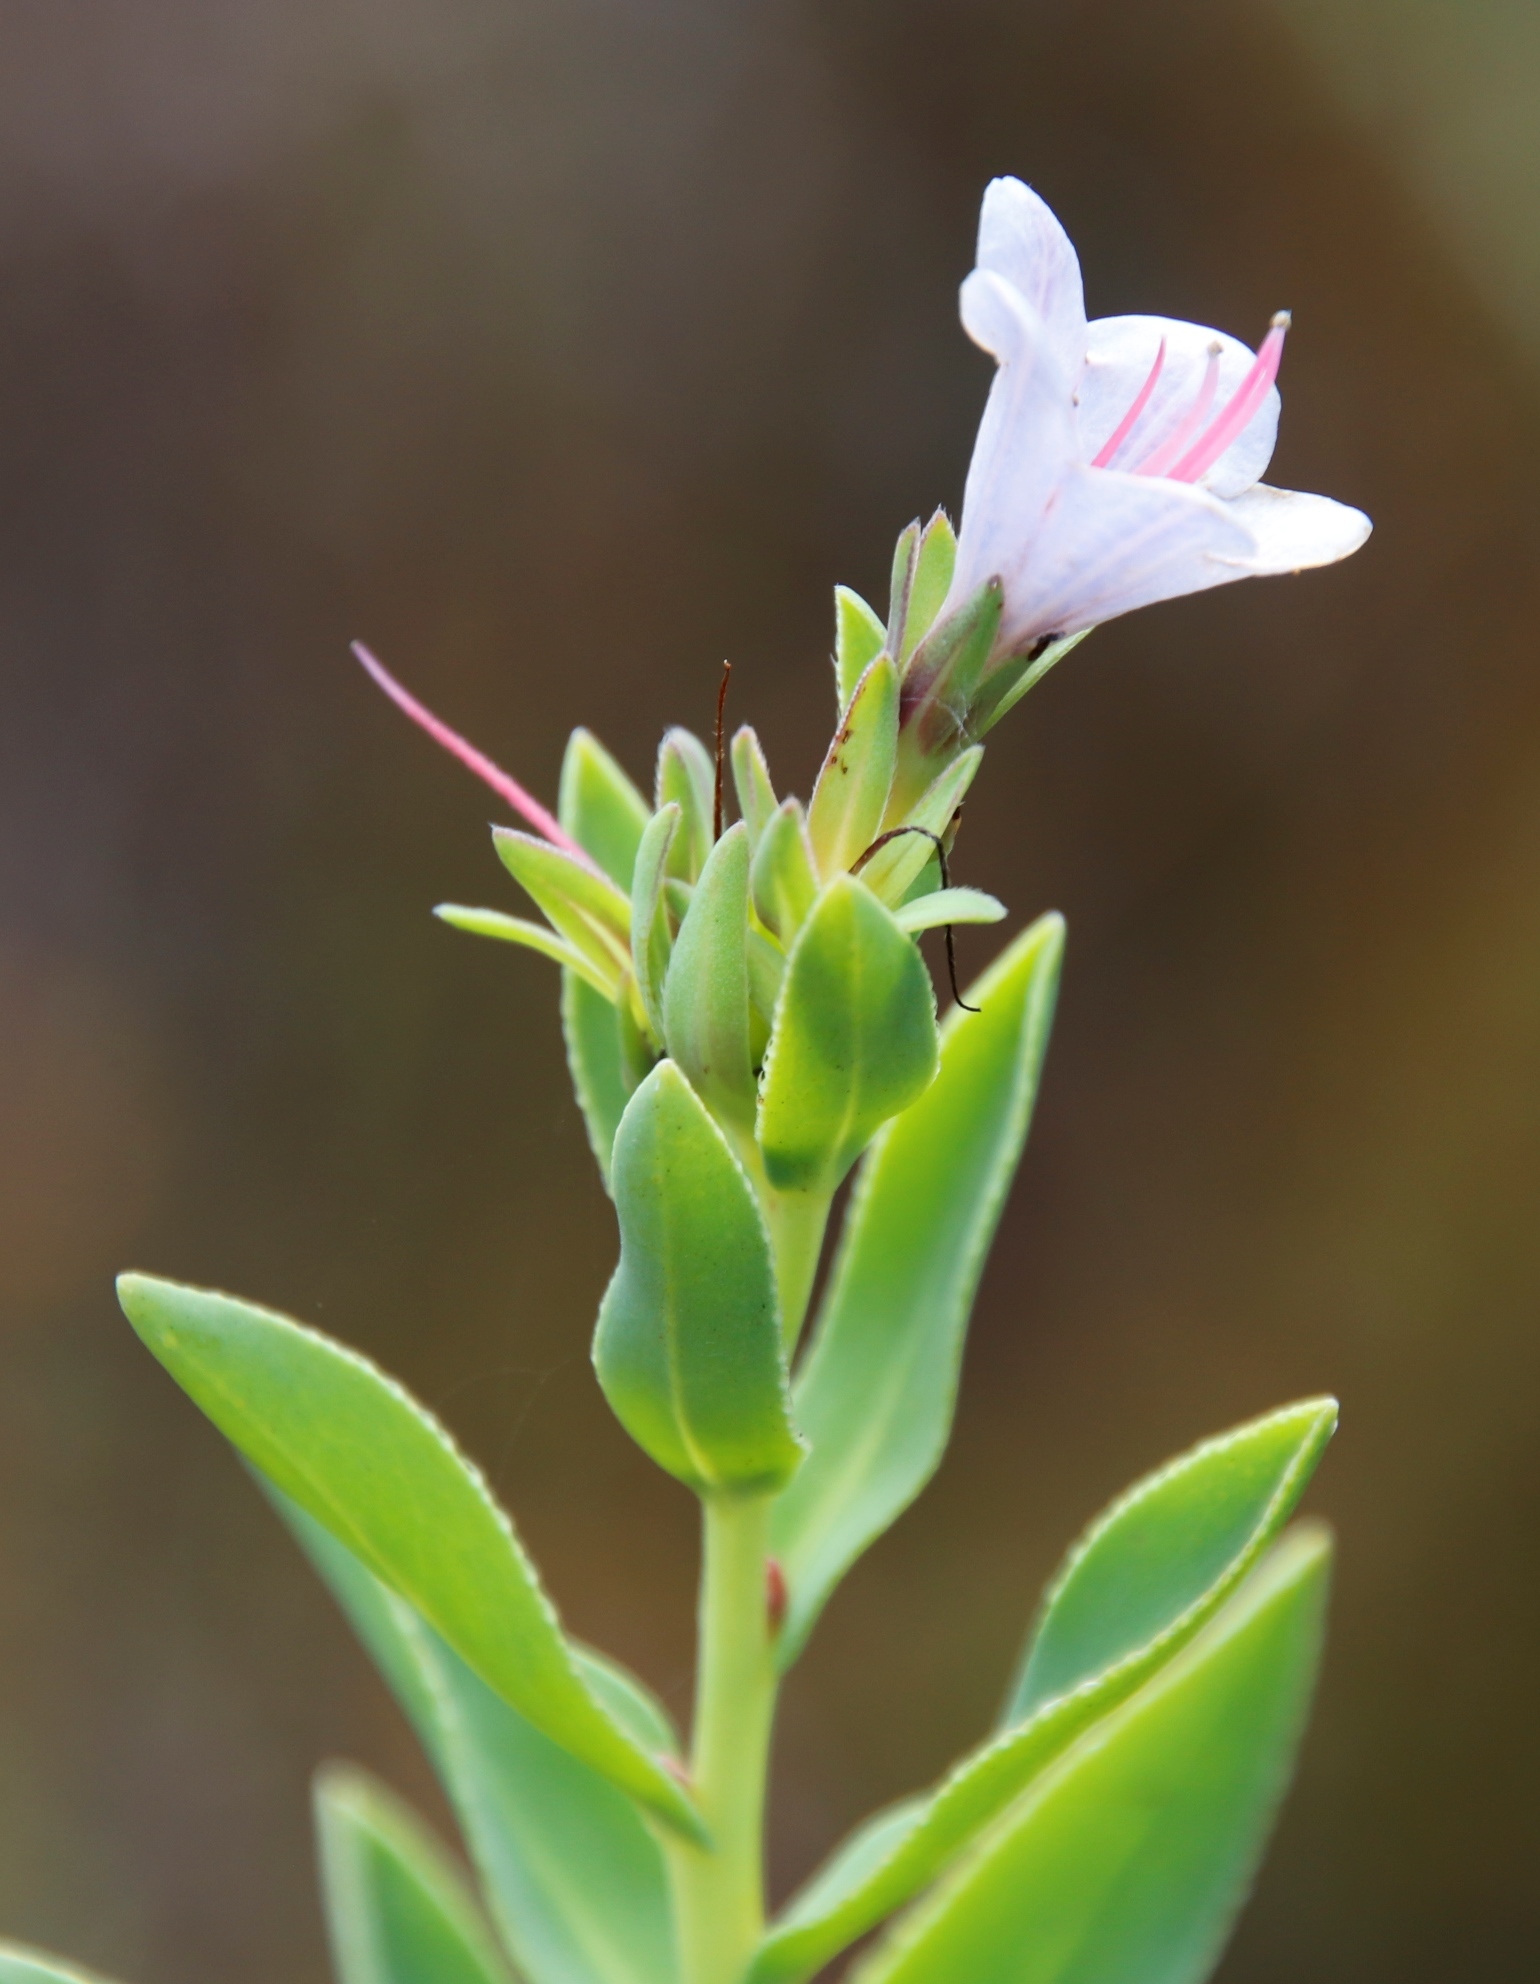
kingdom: Plantae
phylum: Tracheophyta
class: Magnoliopsida
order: Boraginales
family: Boraginaceae
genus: Lobostemon
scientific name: Lobostemon glaucophyllus
